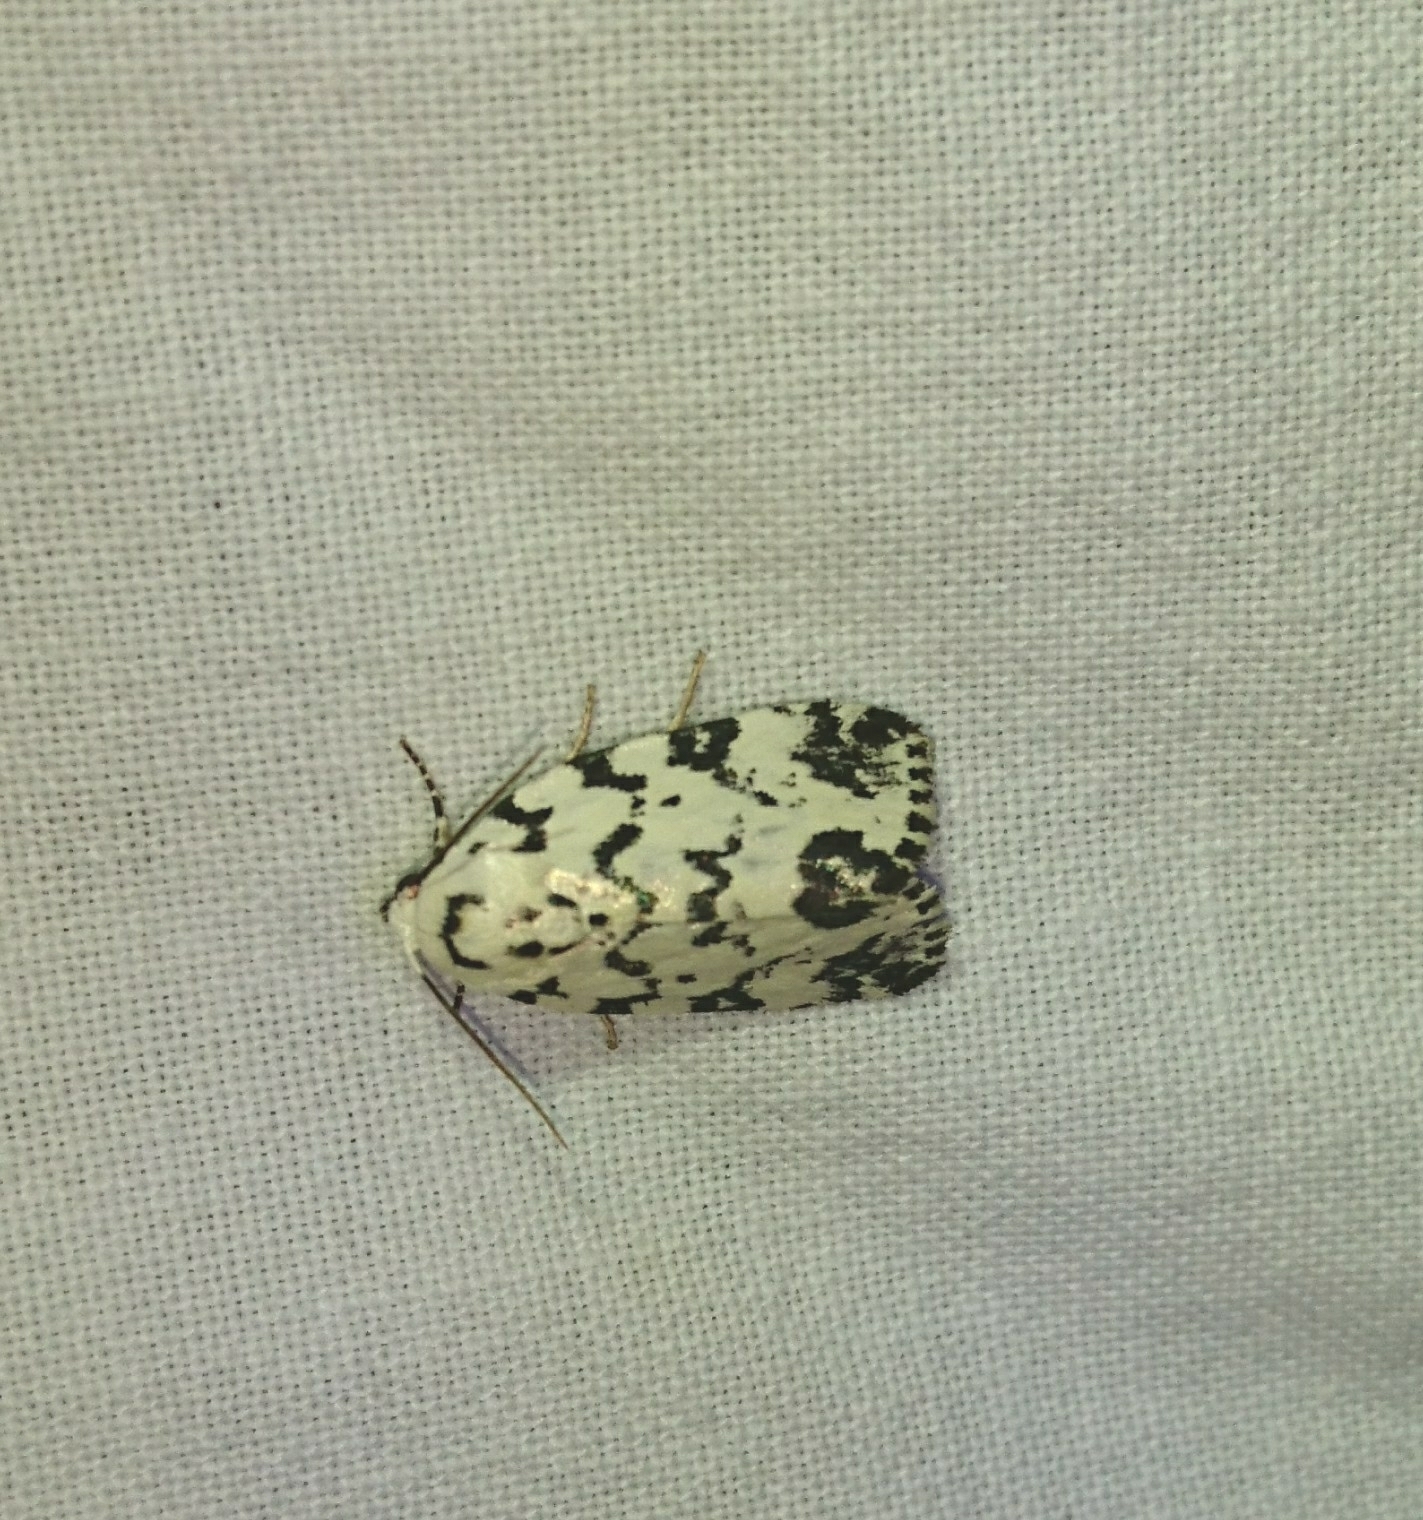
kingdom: Animalia
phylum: Arthropoda
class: Insecta
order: Lepidoptera
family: Noctuidae
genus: Polygrammate
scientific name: Polygrammate hebraeicum
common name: Hebrew moth
